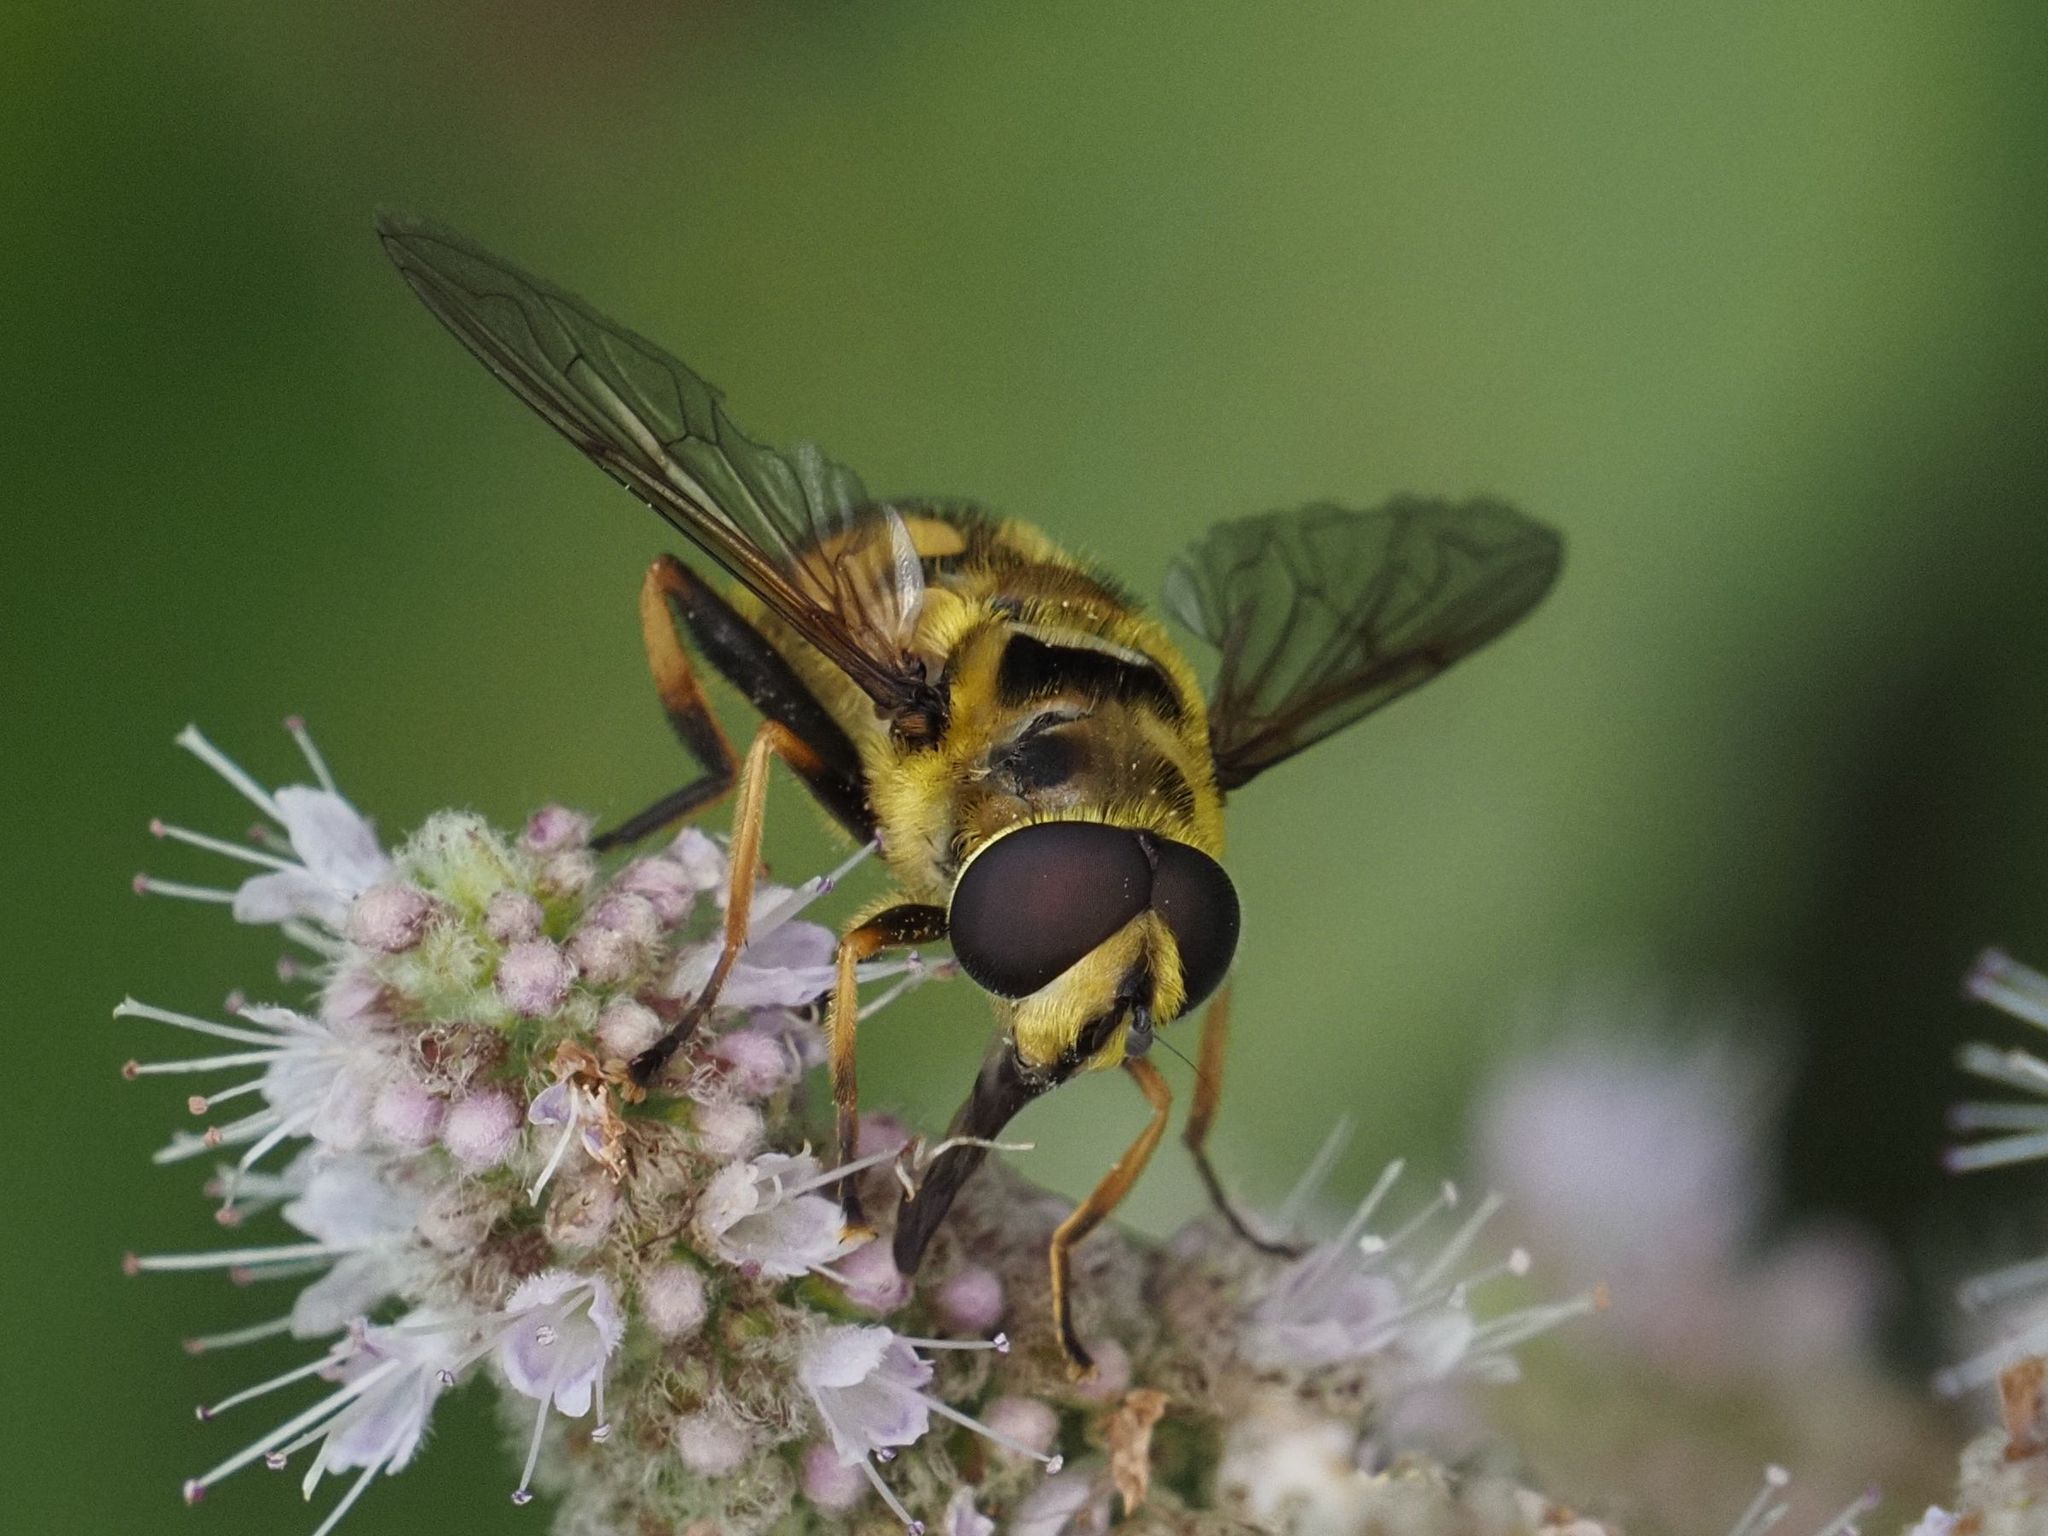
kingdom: Animalia
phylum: Arthropoda
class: Insecta
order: Diptera
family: Syrphidae
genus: Myathropa
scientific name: Myathropa florea
